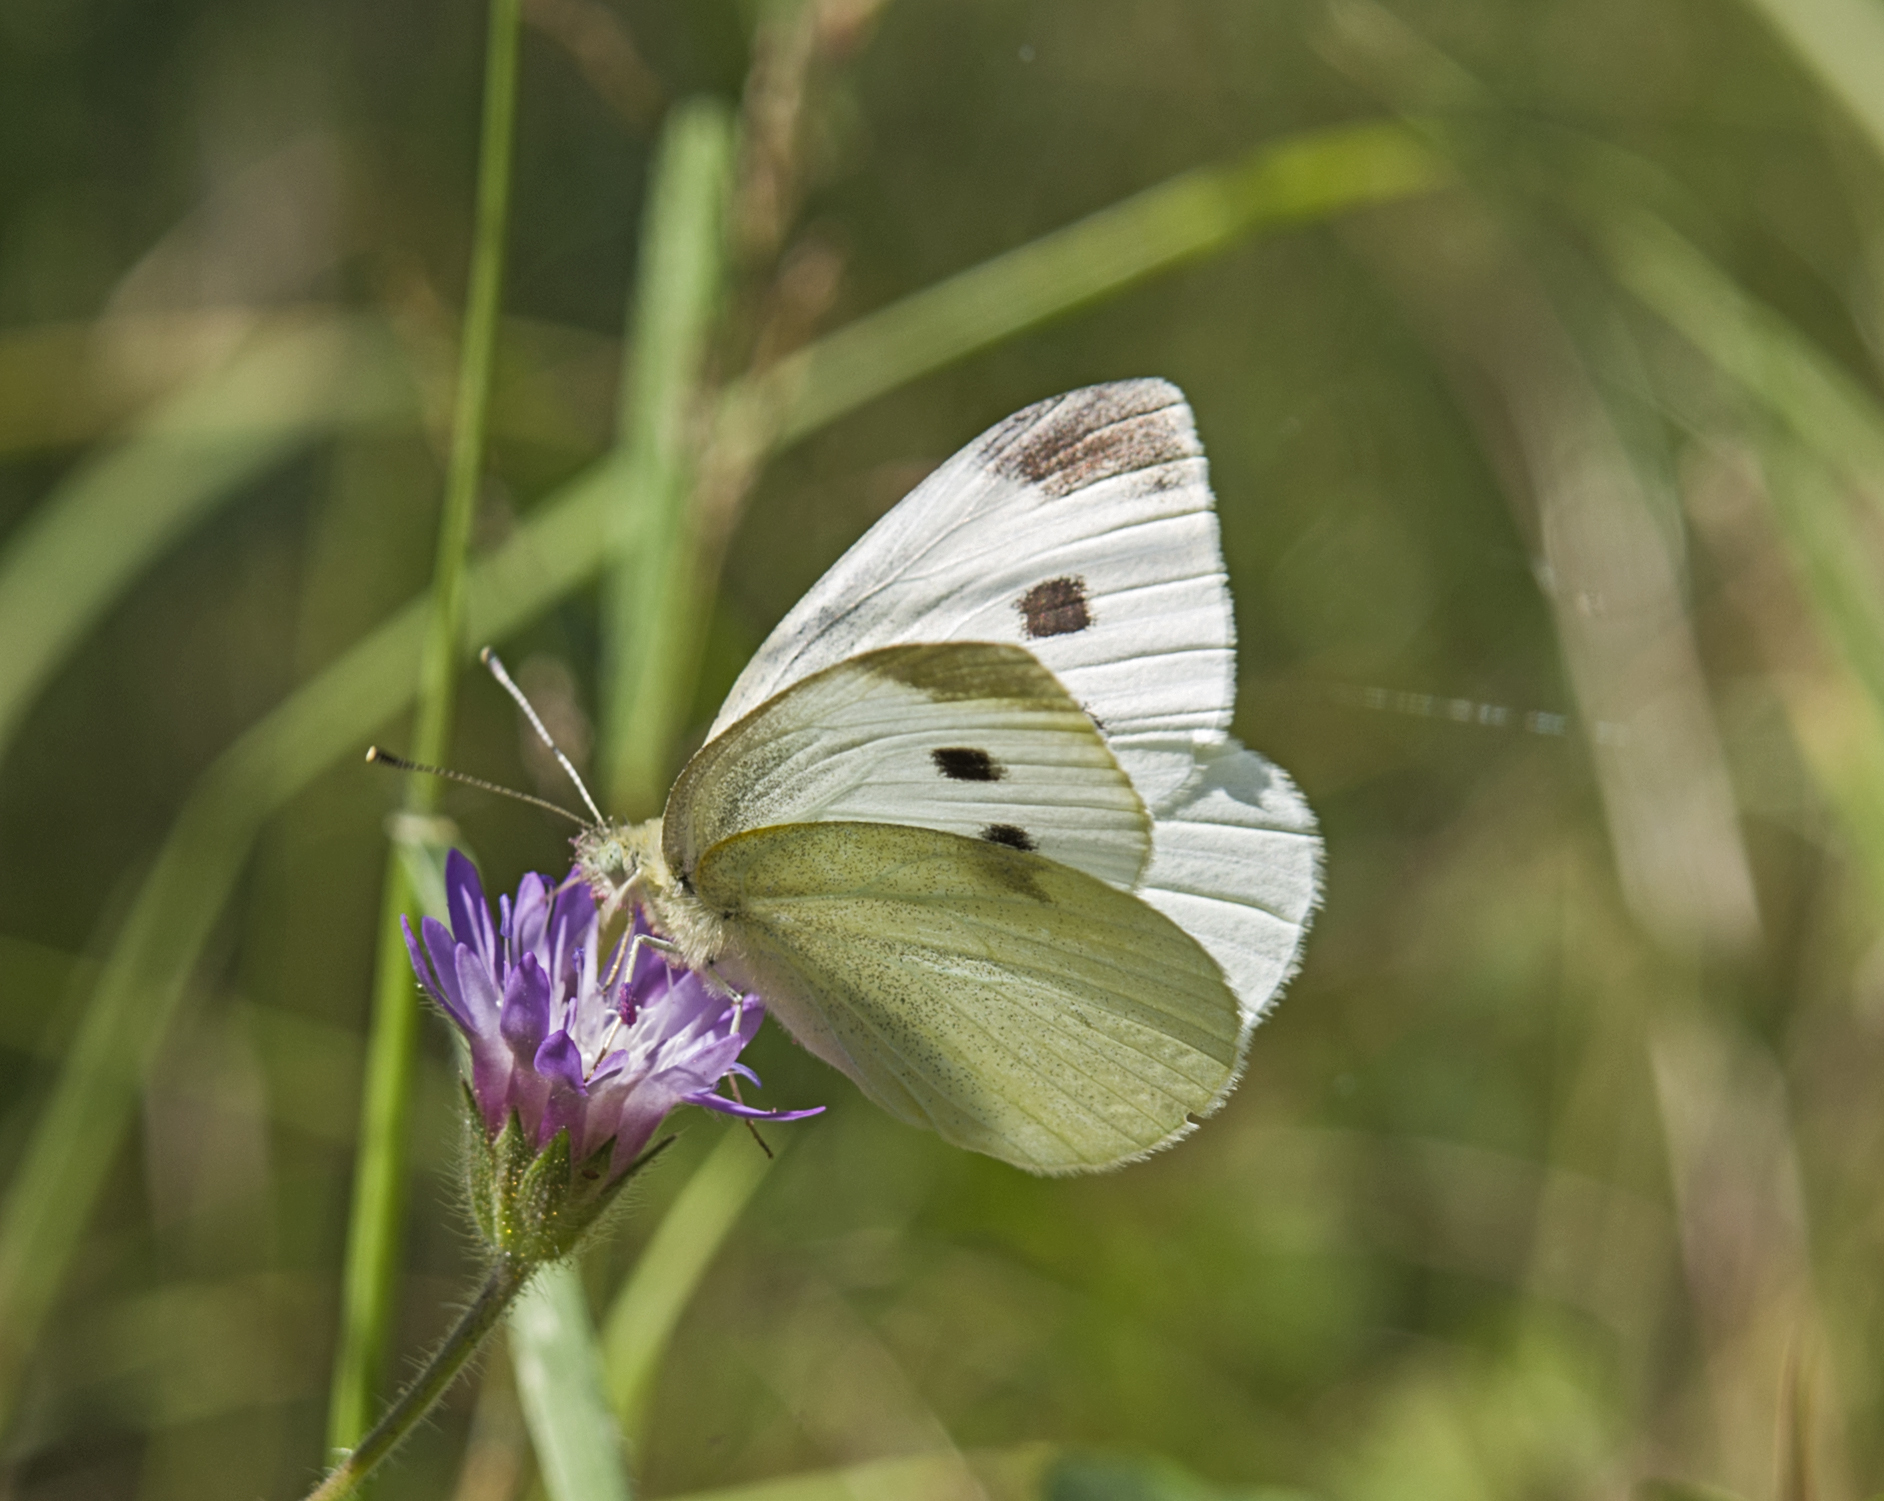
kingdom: Animalia
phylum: Arthropoda
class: Insecta
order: Lepidoptera
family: Pieridae
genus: Pieris
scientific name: Pieris rapae
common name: Small white
